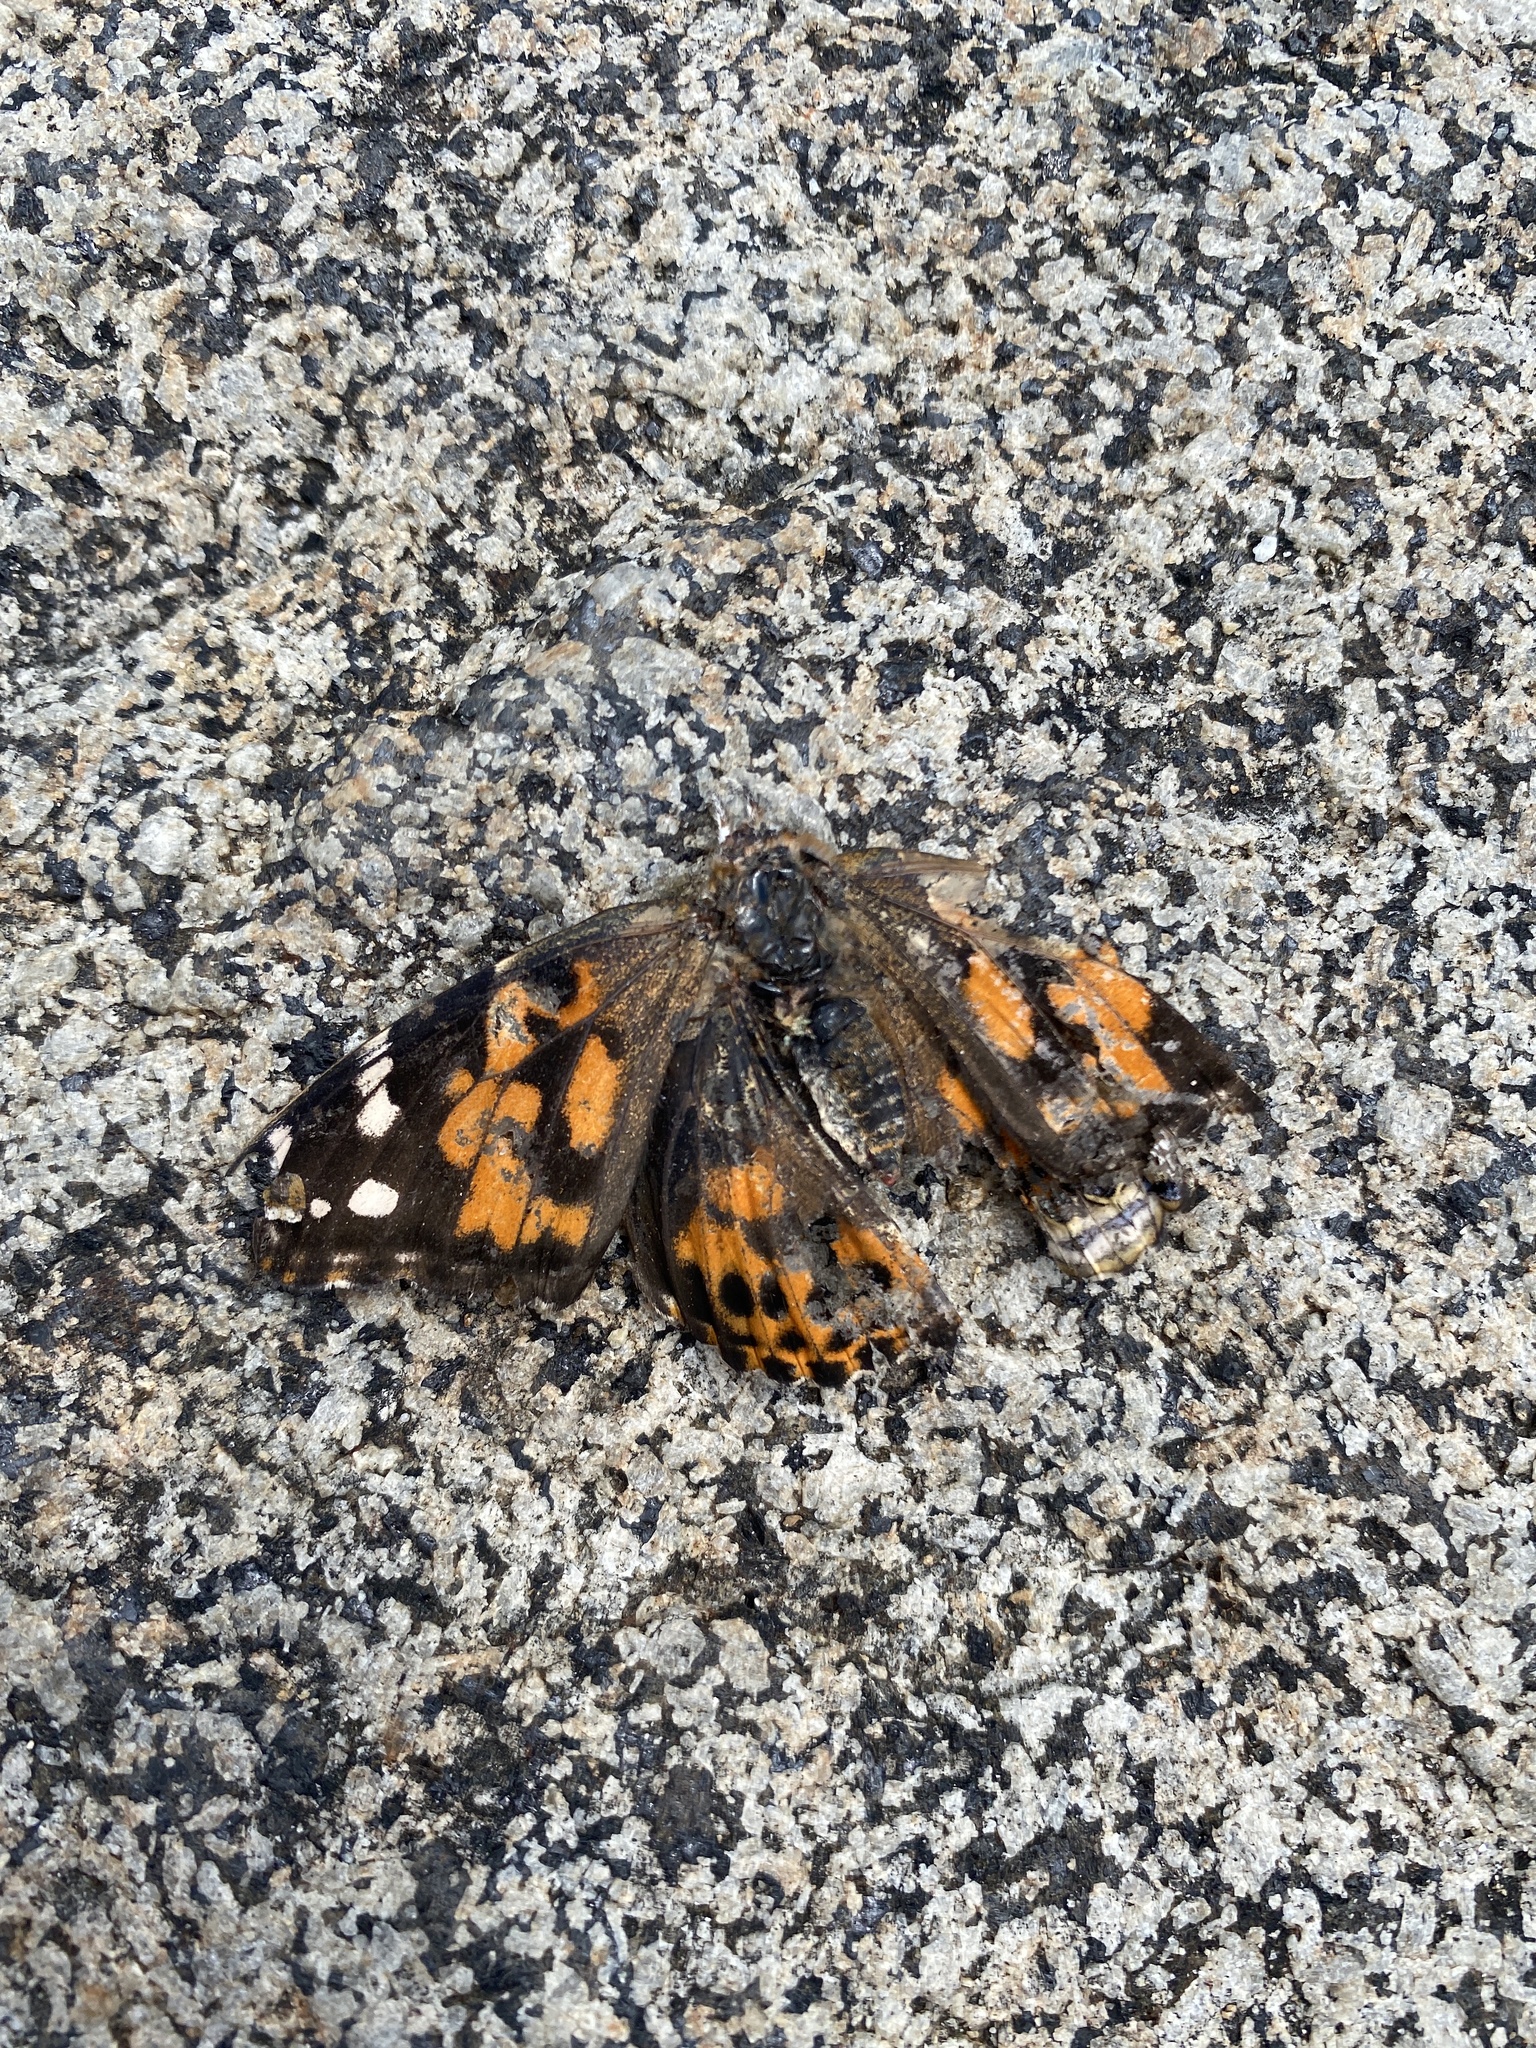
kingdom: Animalia
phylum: Arthropoda
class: Insecta
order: Lepidoptera
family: Nymphalidae
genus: Vanessa
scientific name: Vanessa cardui
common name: Painted lady
